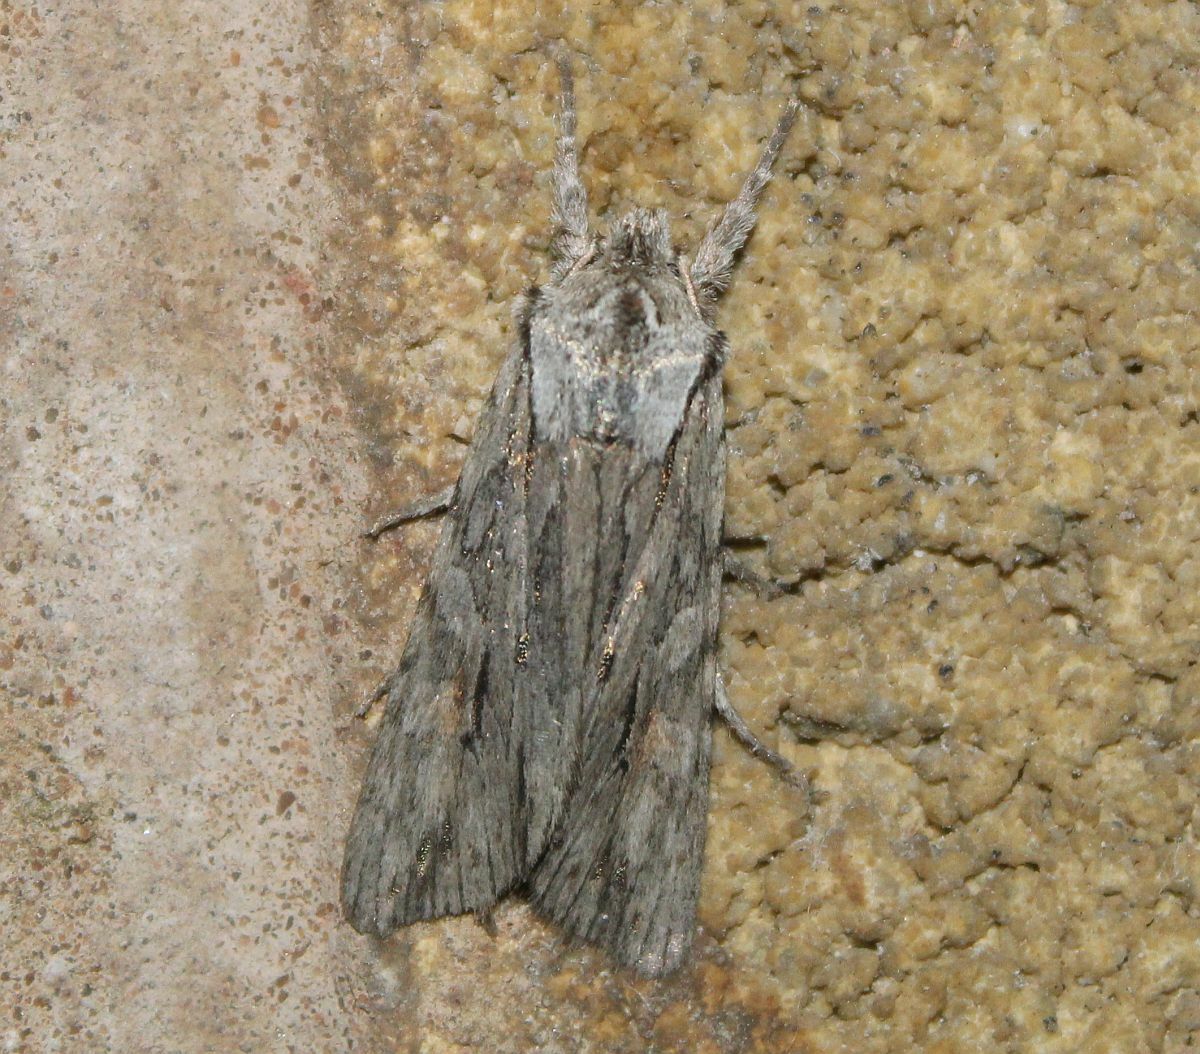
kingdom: Animalia
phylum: Arthropoda
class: Insecta
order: Lepidoptera
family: Noctuidae
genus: Lithophane
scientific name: Lithophane leautieri
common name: Blair's shoulder-knot
